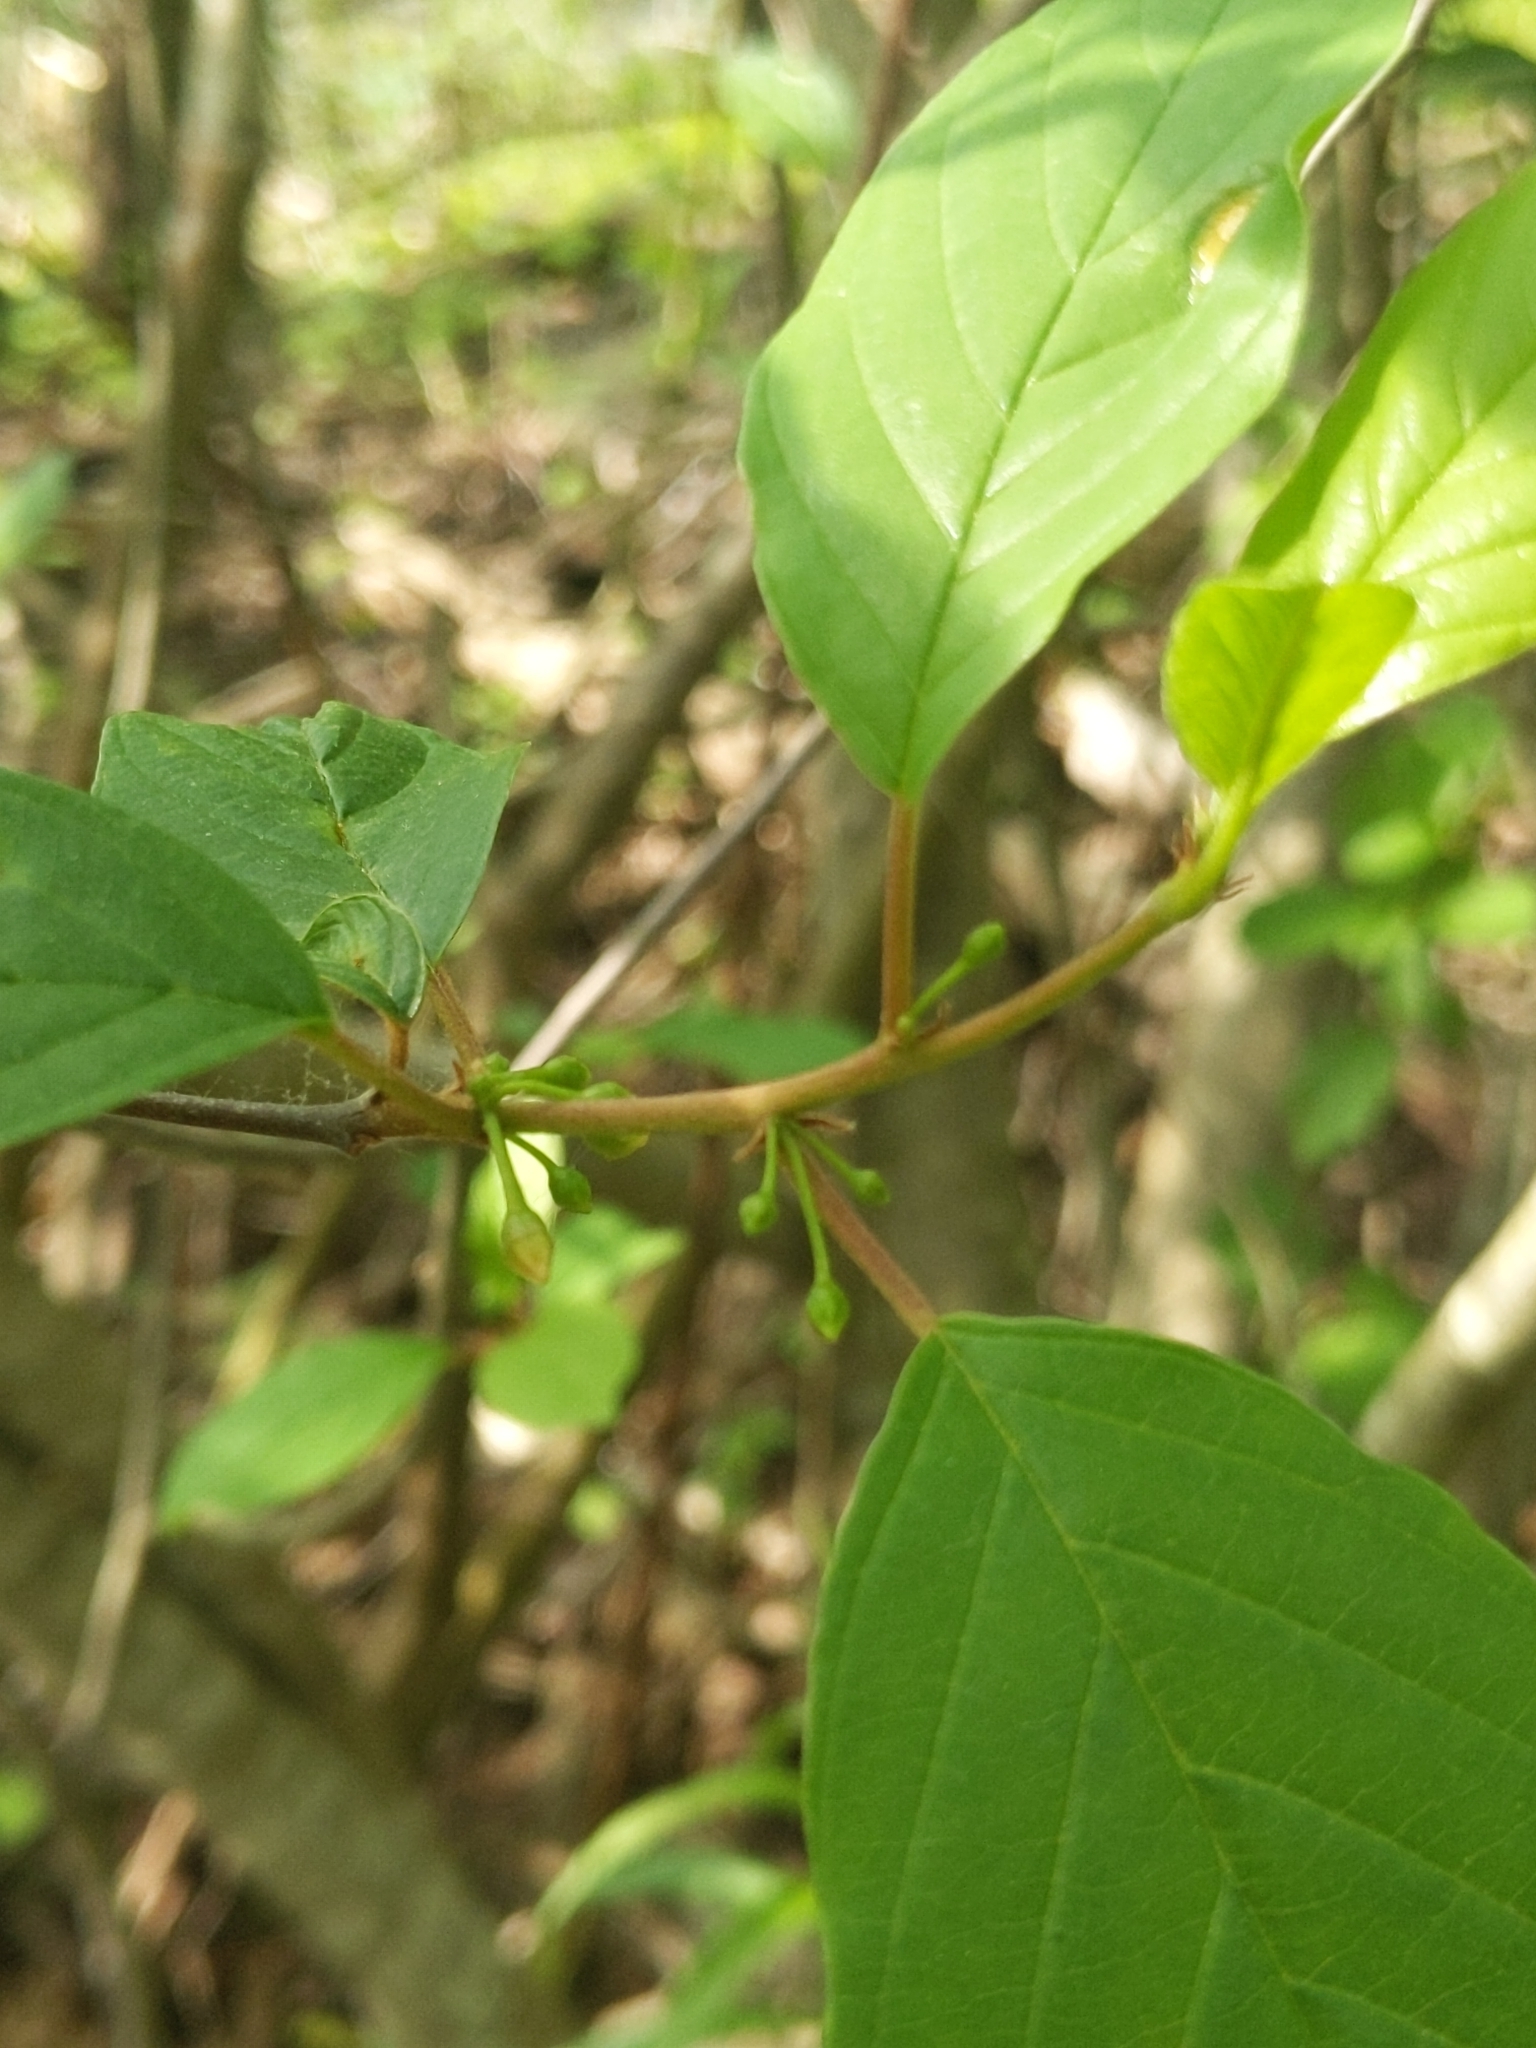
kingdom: Plantae
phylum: Tracheophyta
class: Magnoliopsida
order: Rosales
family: Rhamnaceae
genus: Frangula
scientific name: Frangula alnus
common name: Alder buckthorn
